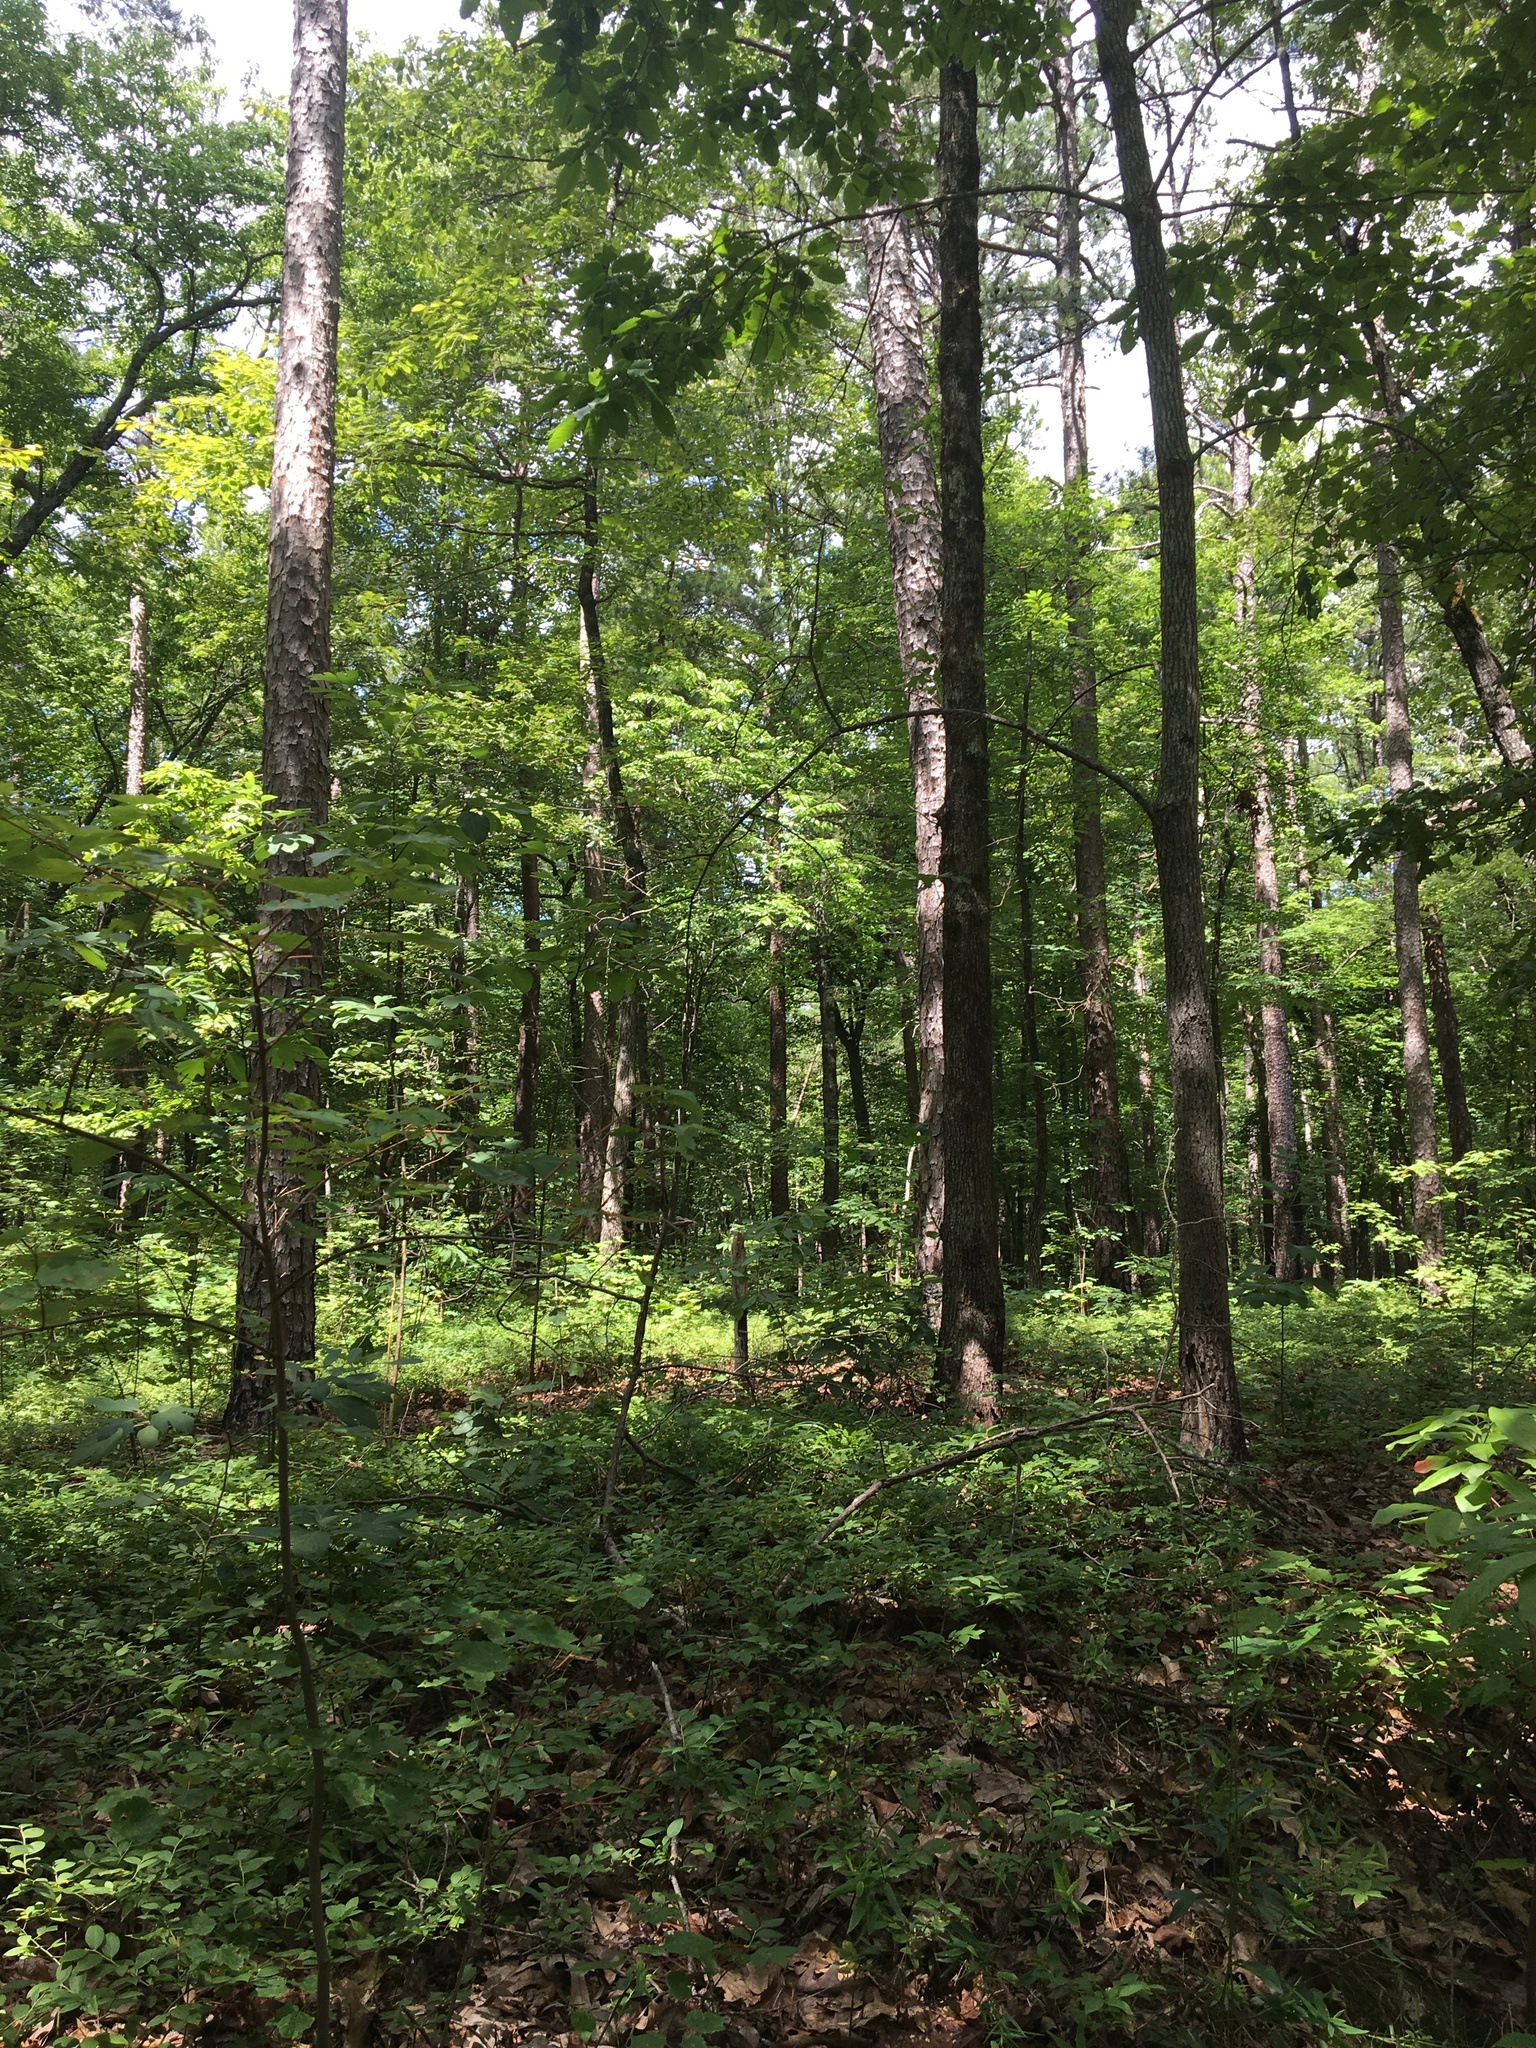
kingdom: Animalia
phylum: Chordata
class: Aves
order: Passeriformes
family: Tyrannidae
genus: Contopus
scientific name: Contopus virens
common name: Eastern wood-pewee
